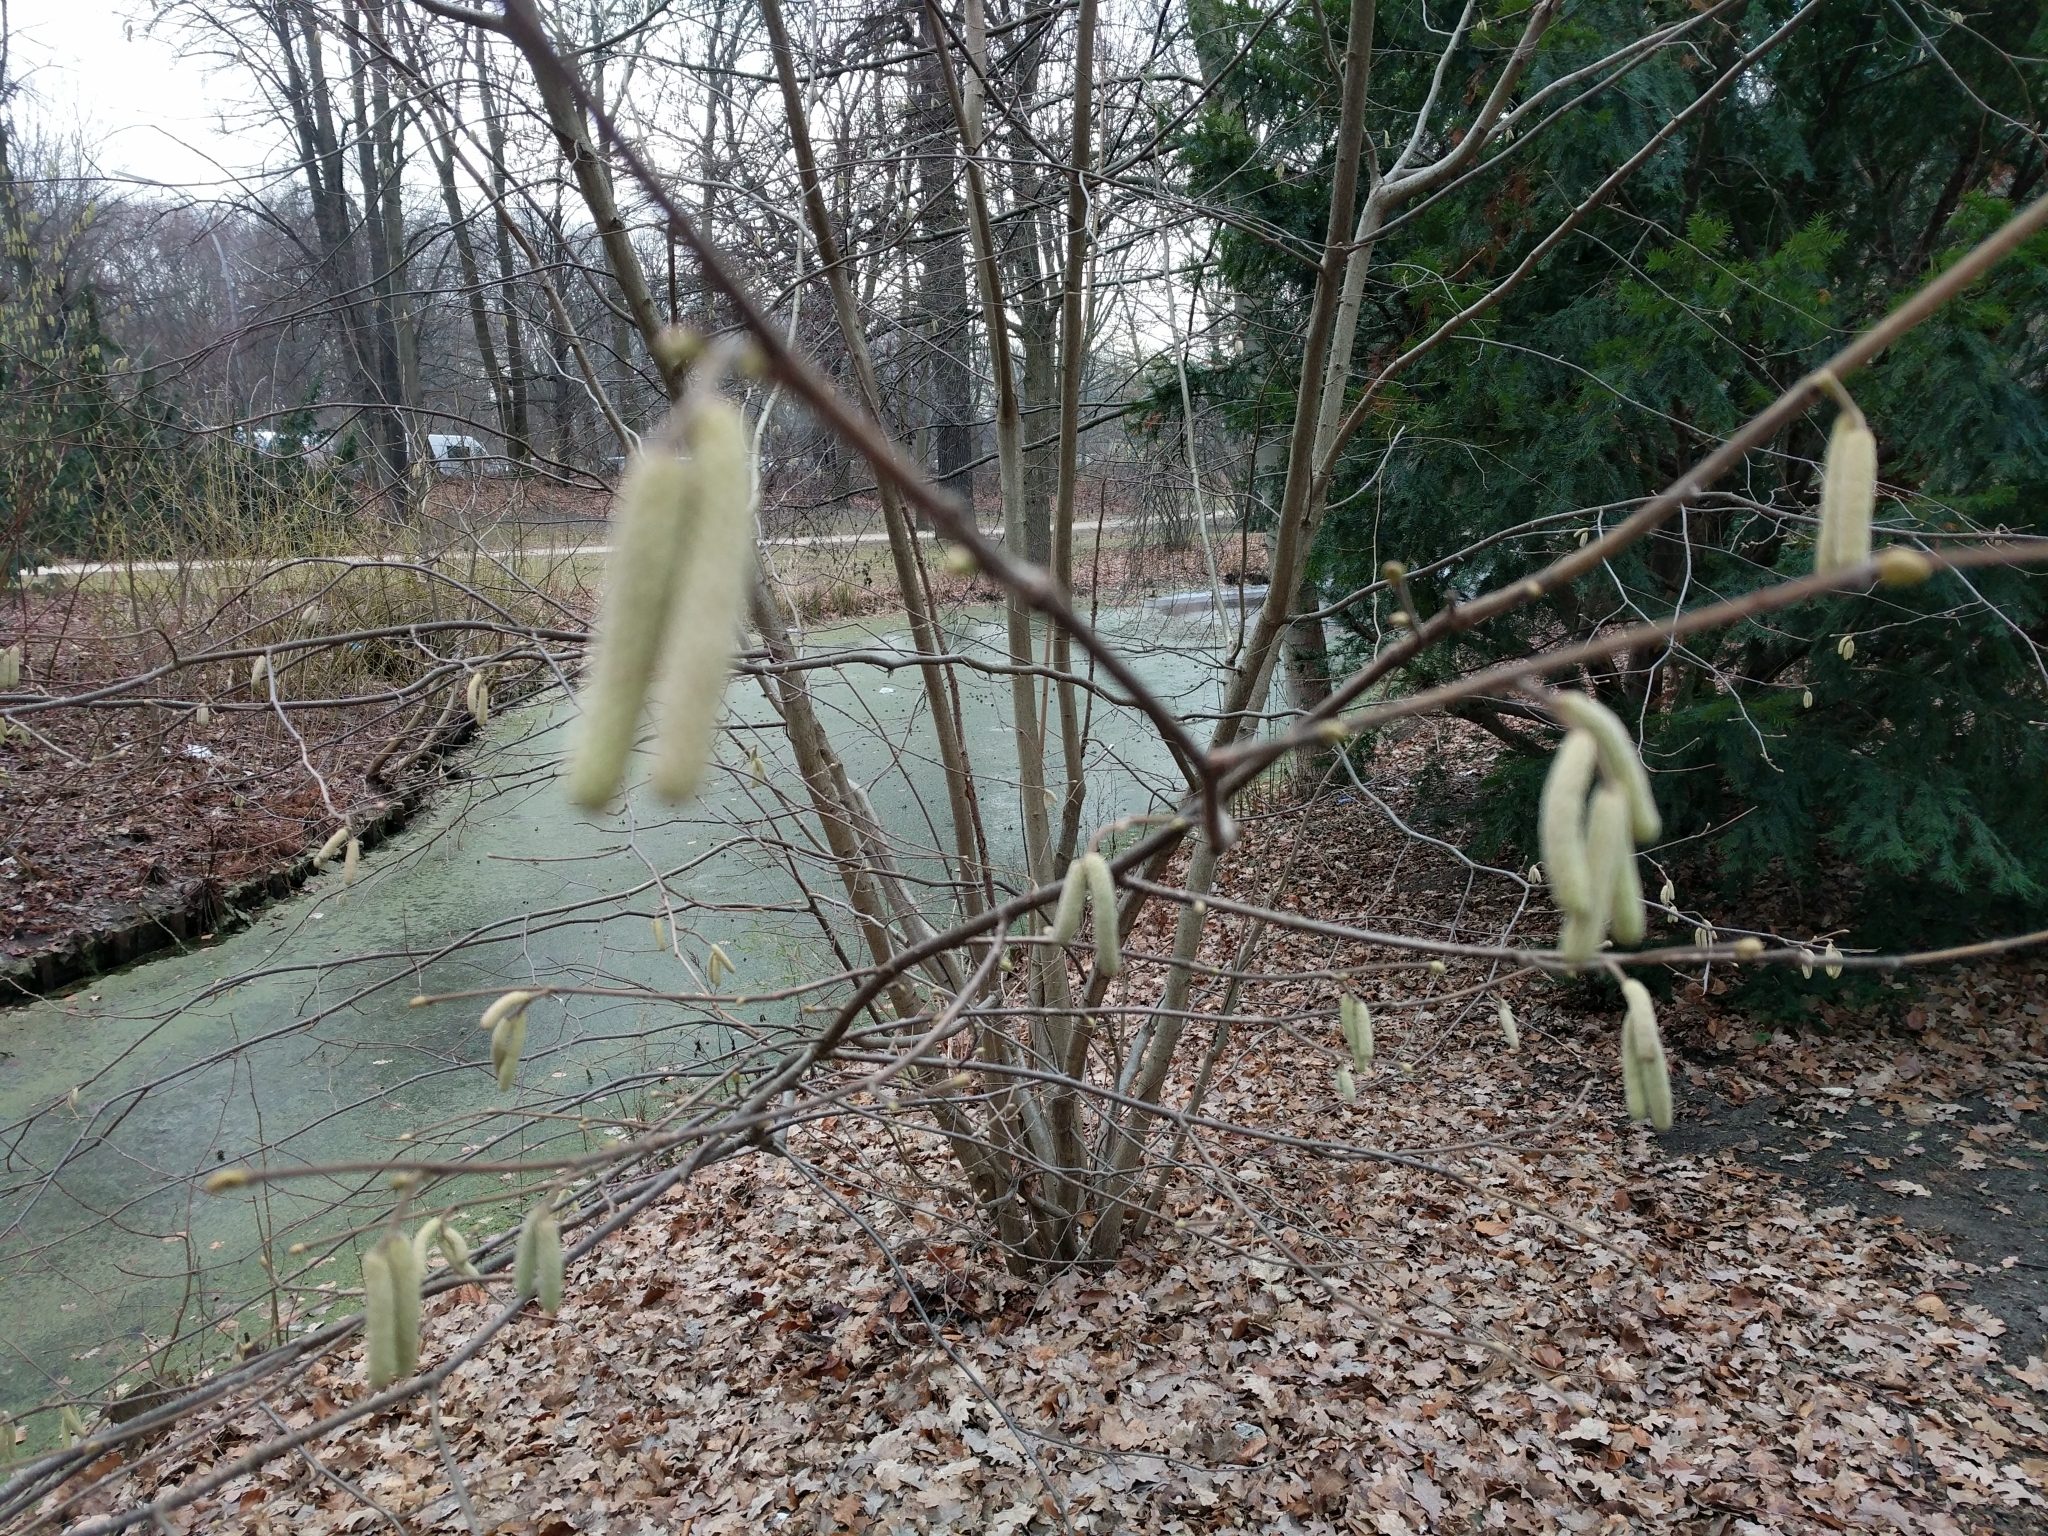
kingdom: Plantae
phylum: Tracheophyta
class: Magnoliopsida
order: Fagales
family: Betulaceae
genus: Corylus
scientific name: Corylus avellana
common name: European hazel
